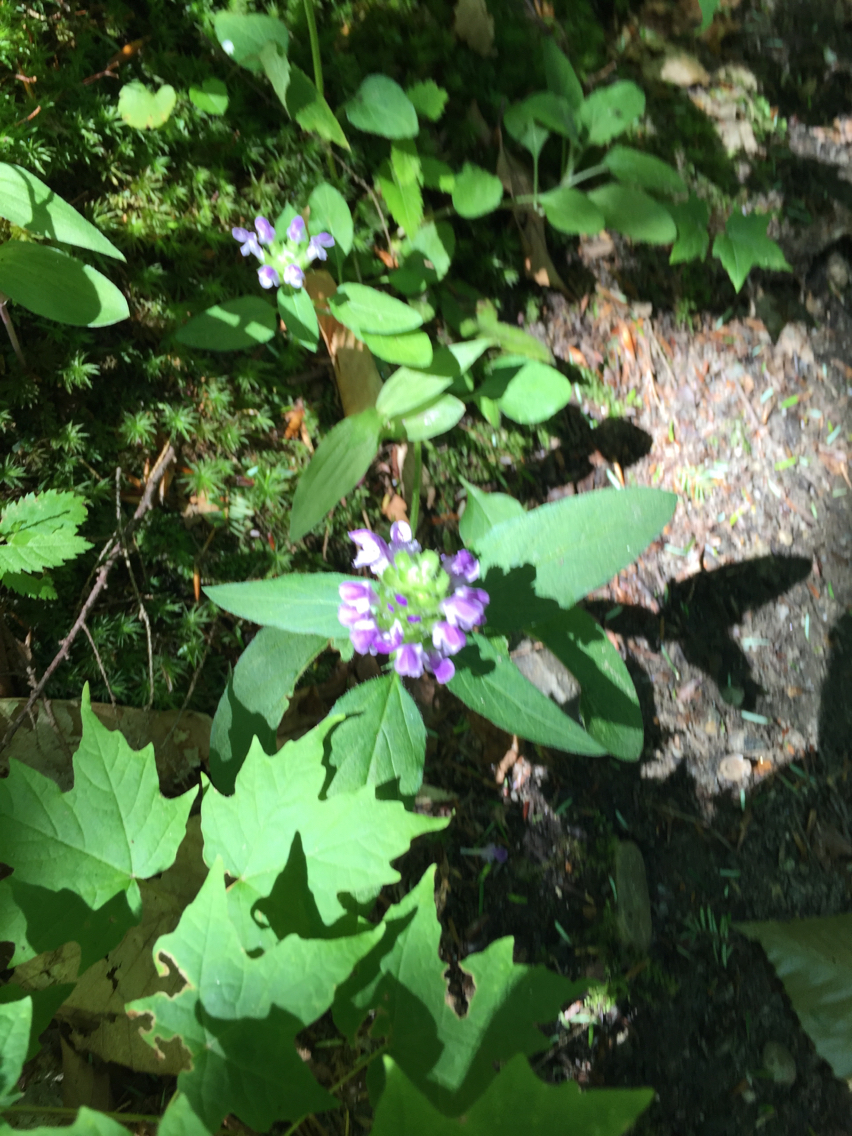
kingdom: Plantae
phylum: Tracheophyta
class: Magnoliopsida
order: Lamiales
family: Lamiaceae
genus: Prunella
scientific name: Prunella vulgaris
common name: Heal-all
